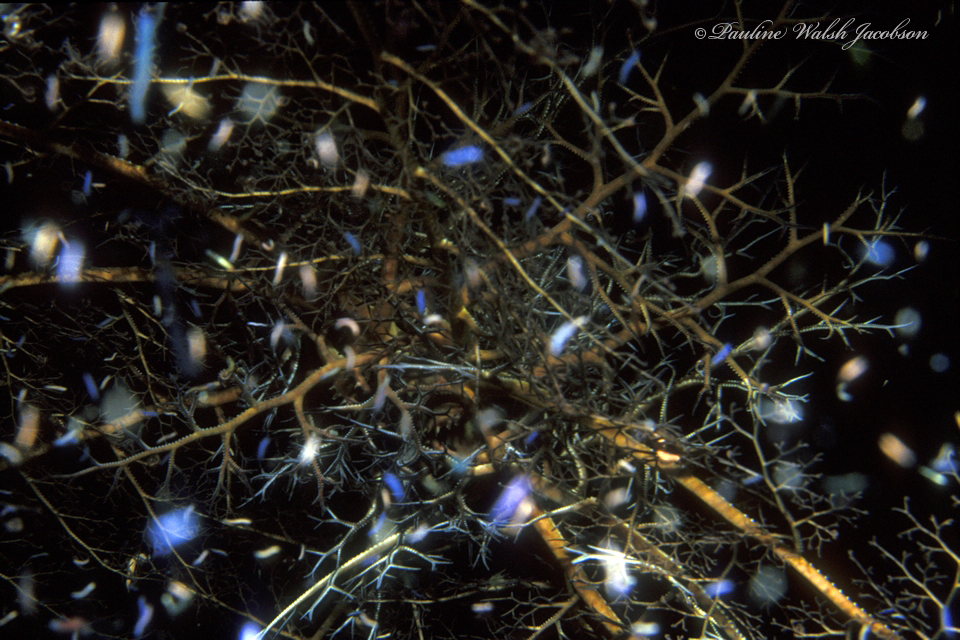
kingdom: Animalia
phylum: Echinodermata
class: Ophiuroidea
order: Euryalida
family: Gorgonocephalidae
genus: Astrophyton
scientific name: Astrophyton muricatum
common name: Basket starfish
